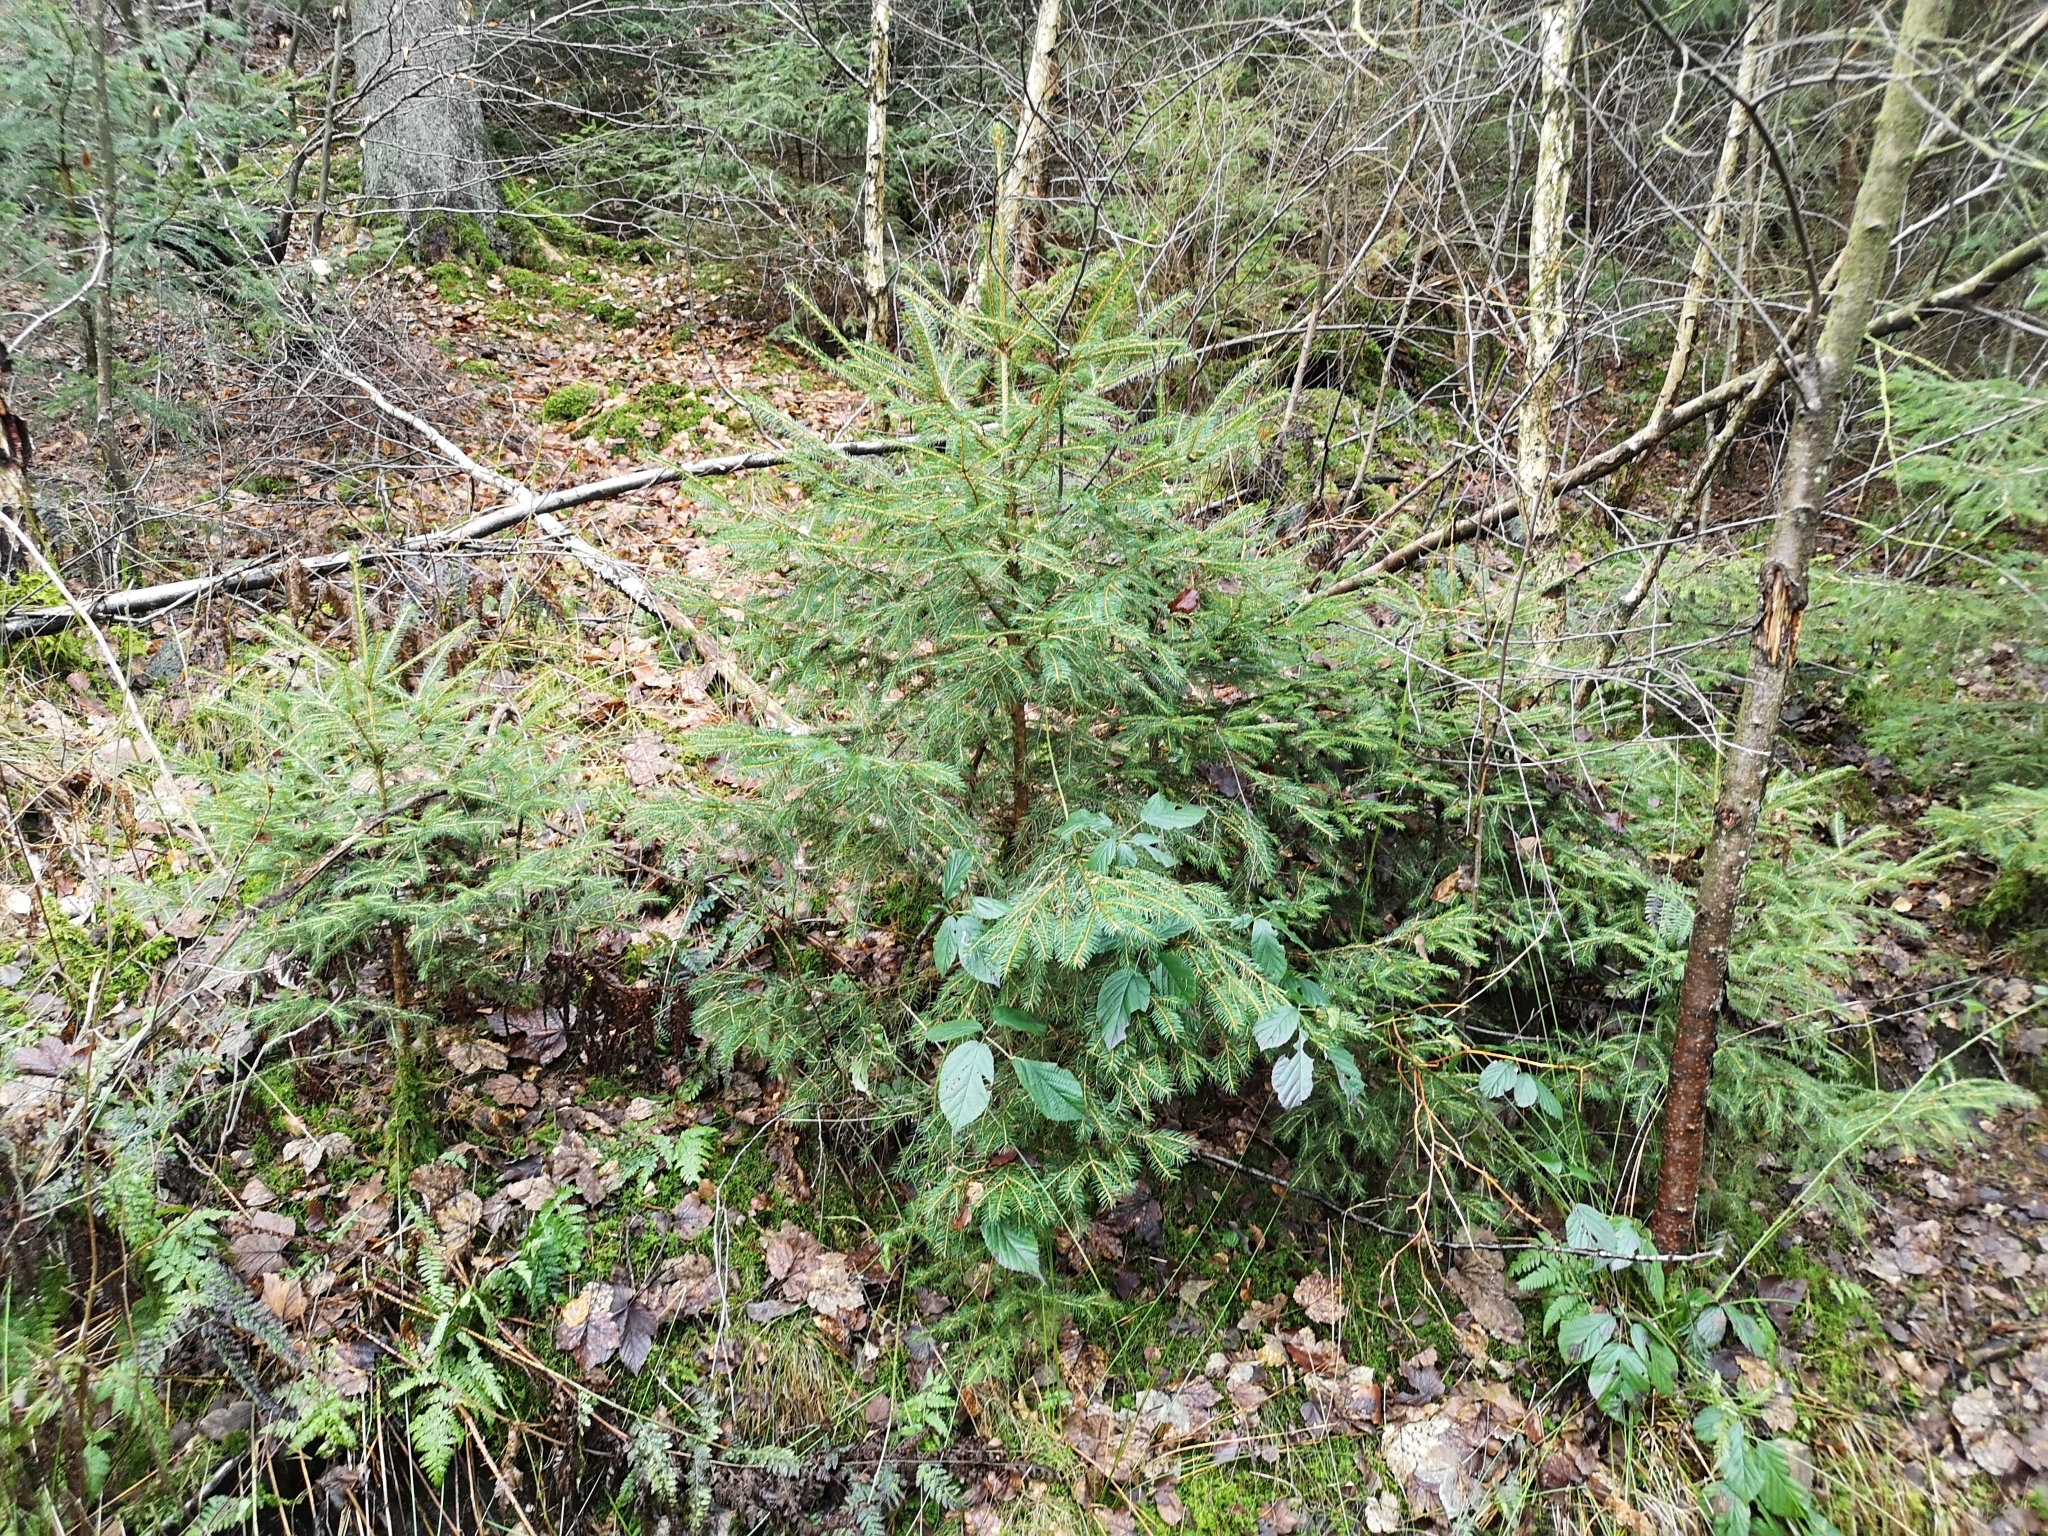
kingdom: Plantae
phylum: Tracheophyta
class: Pinopsida
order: Pinales
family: Pinaceae
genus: Picea
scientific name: Picea abies
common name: Norway spruce
